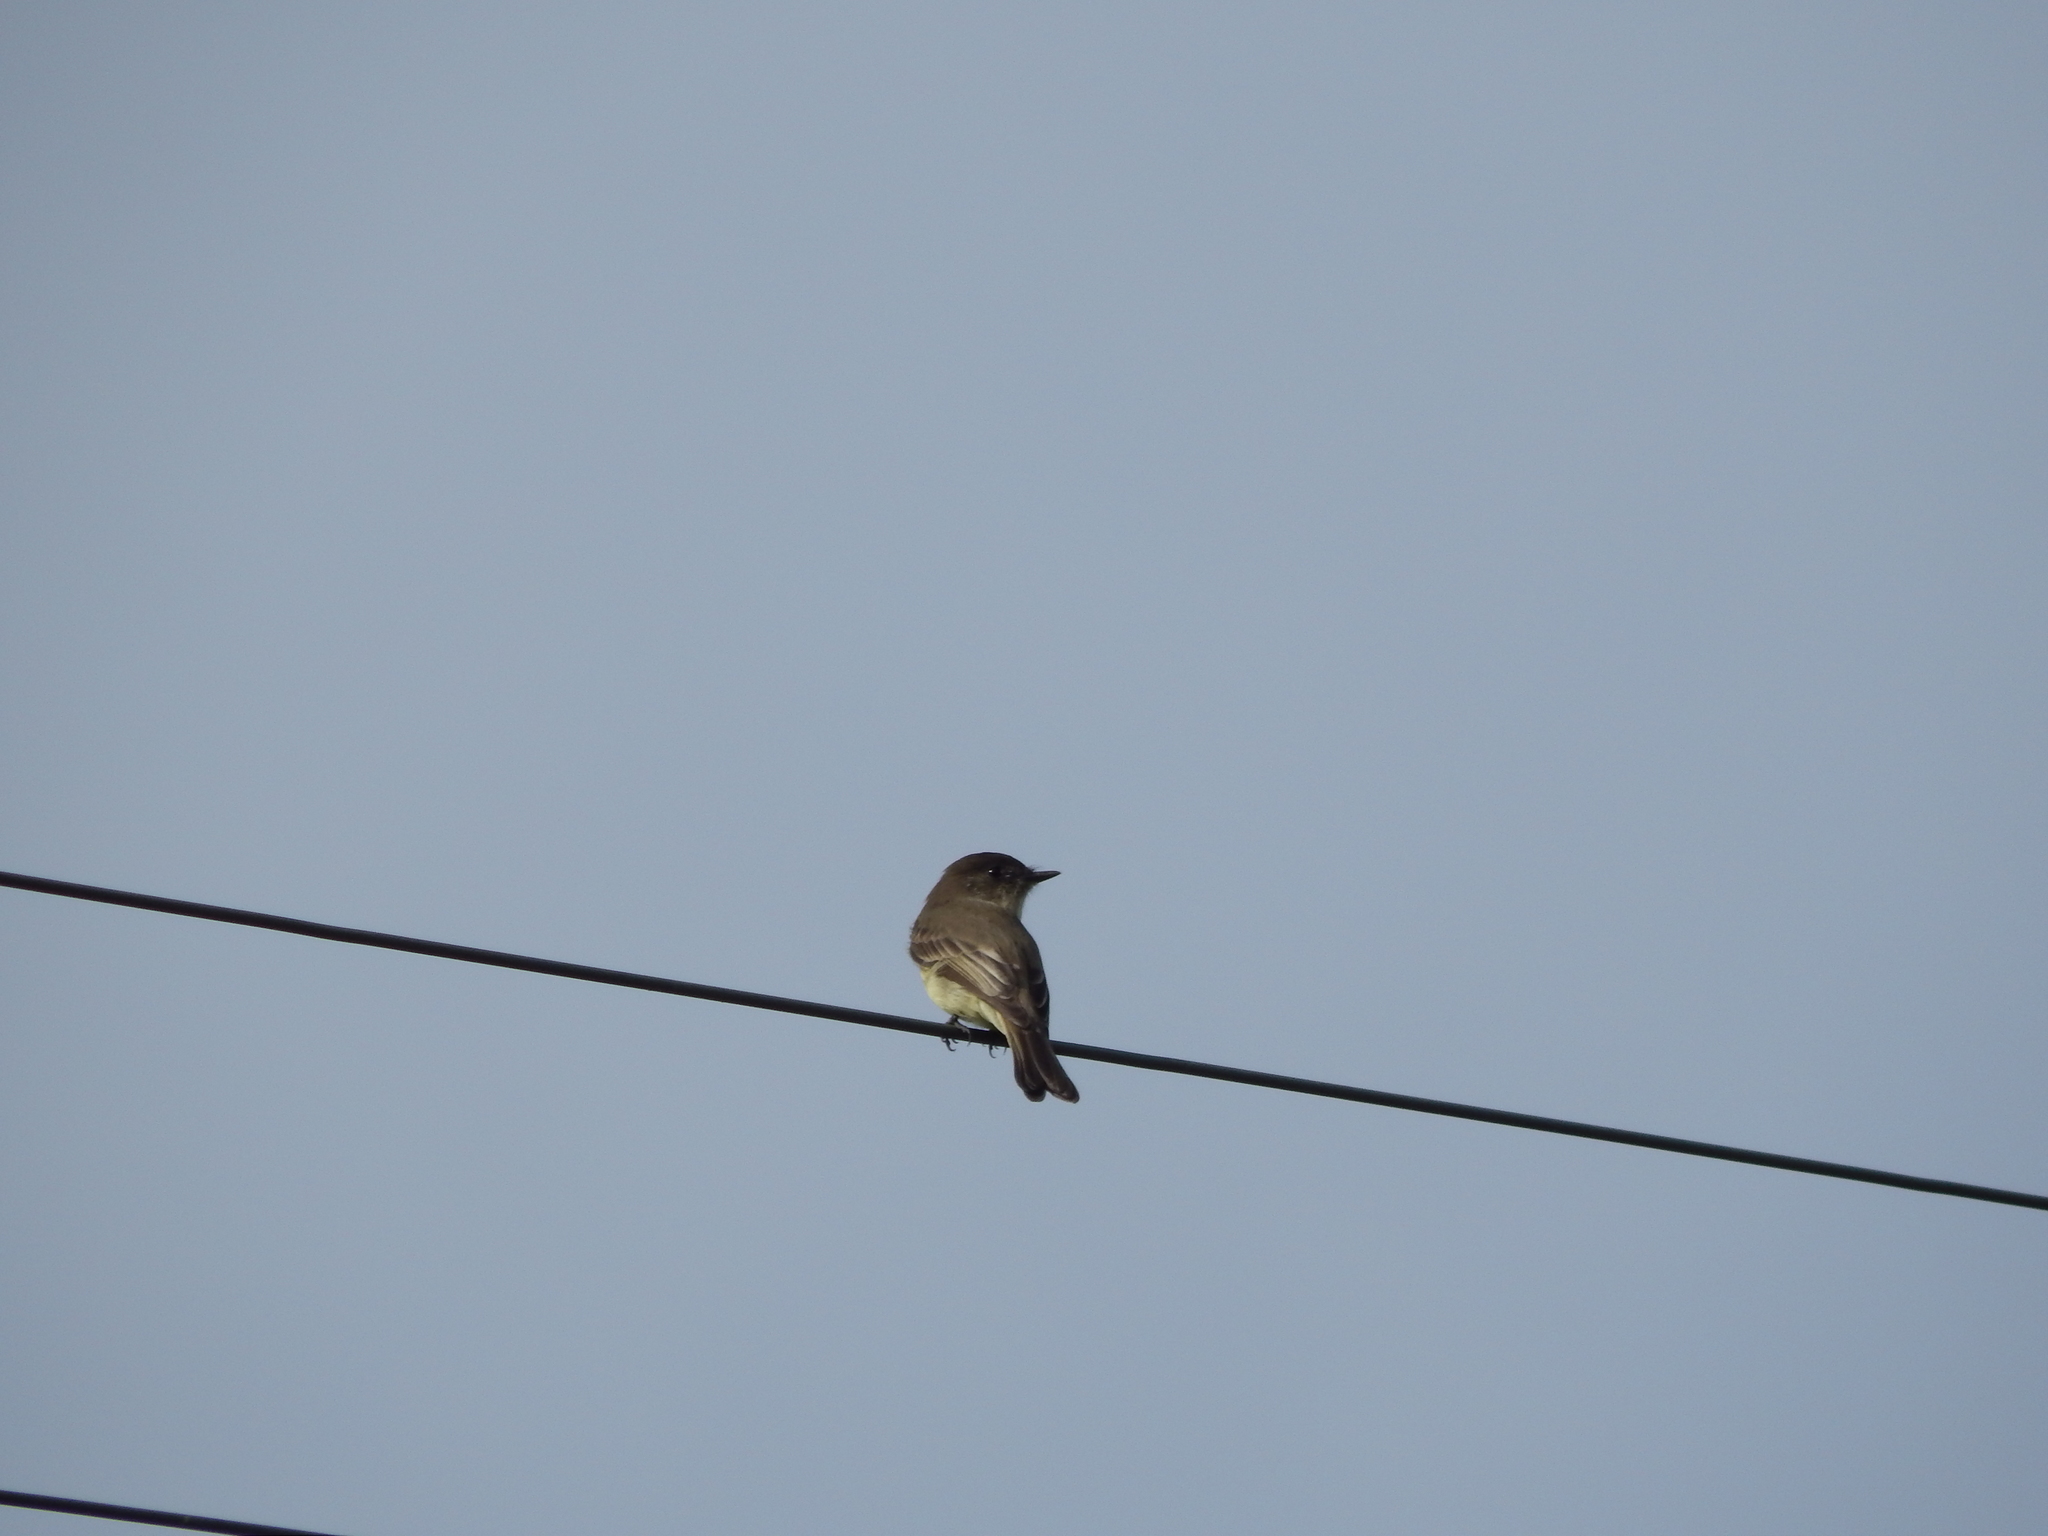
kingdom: Animalia
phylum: Chordata
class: Aves
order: Passeriformes
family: Tyrannidae
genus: Sayornis
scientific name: Sayornis phoebe
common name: Eastern phoebe
